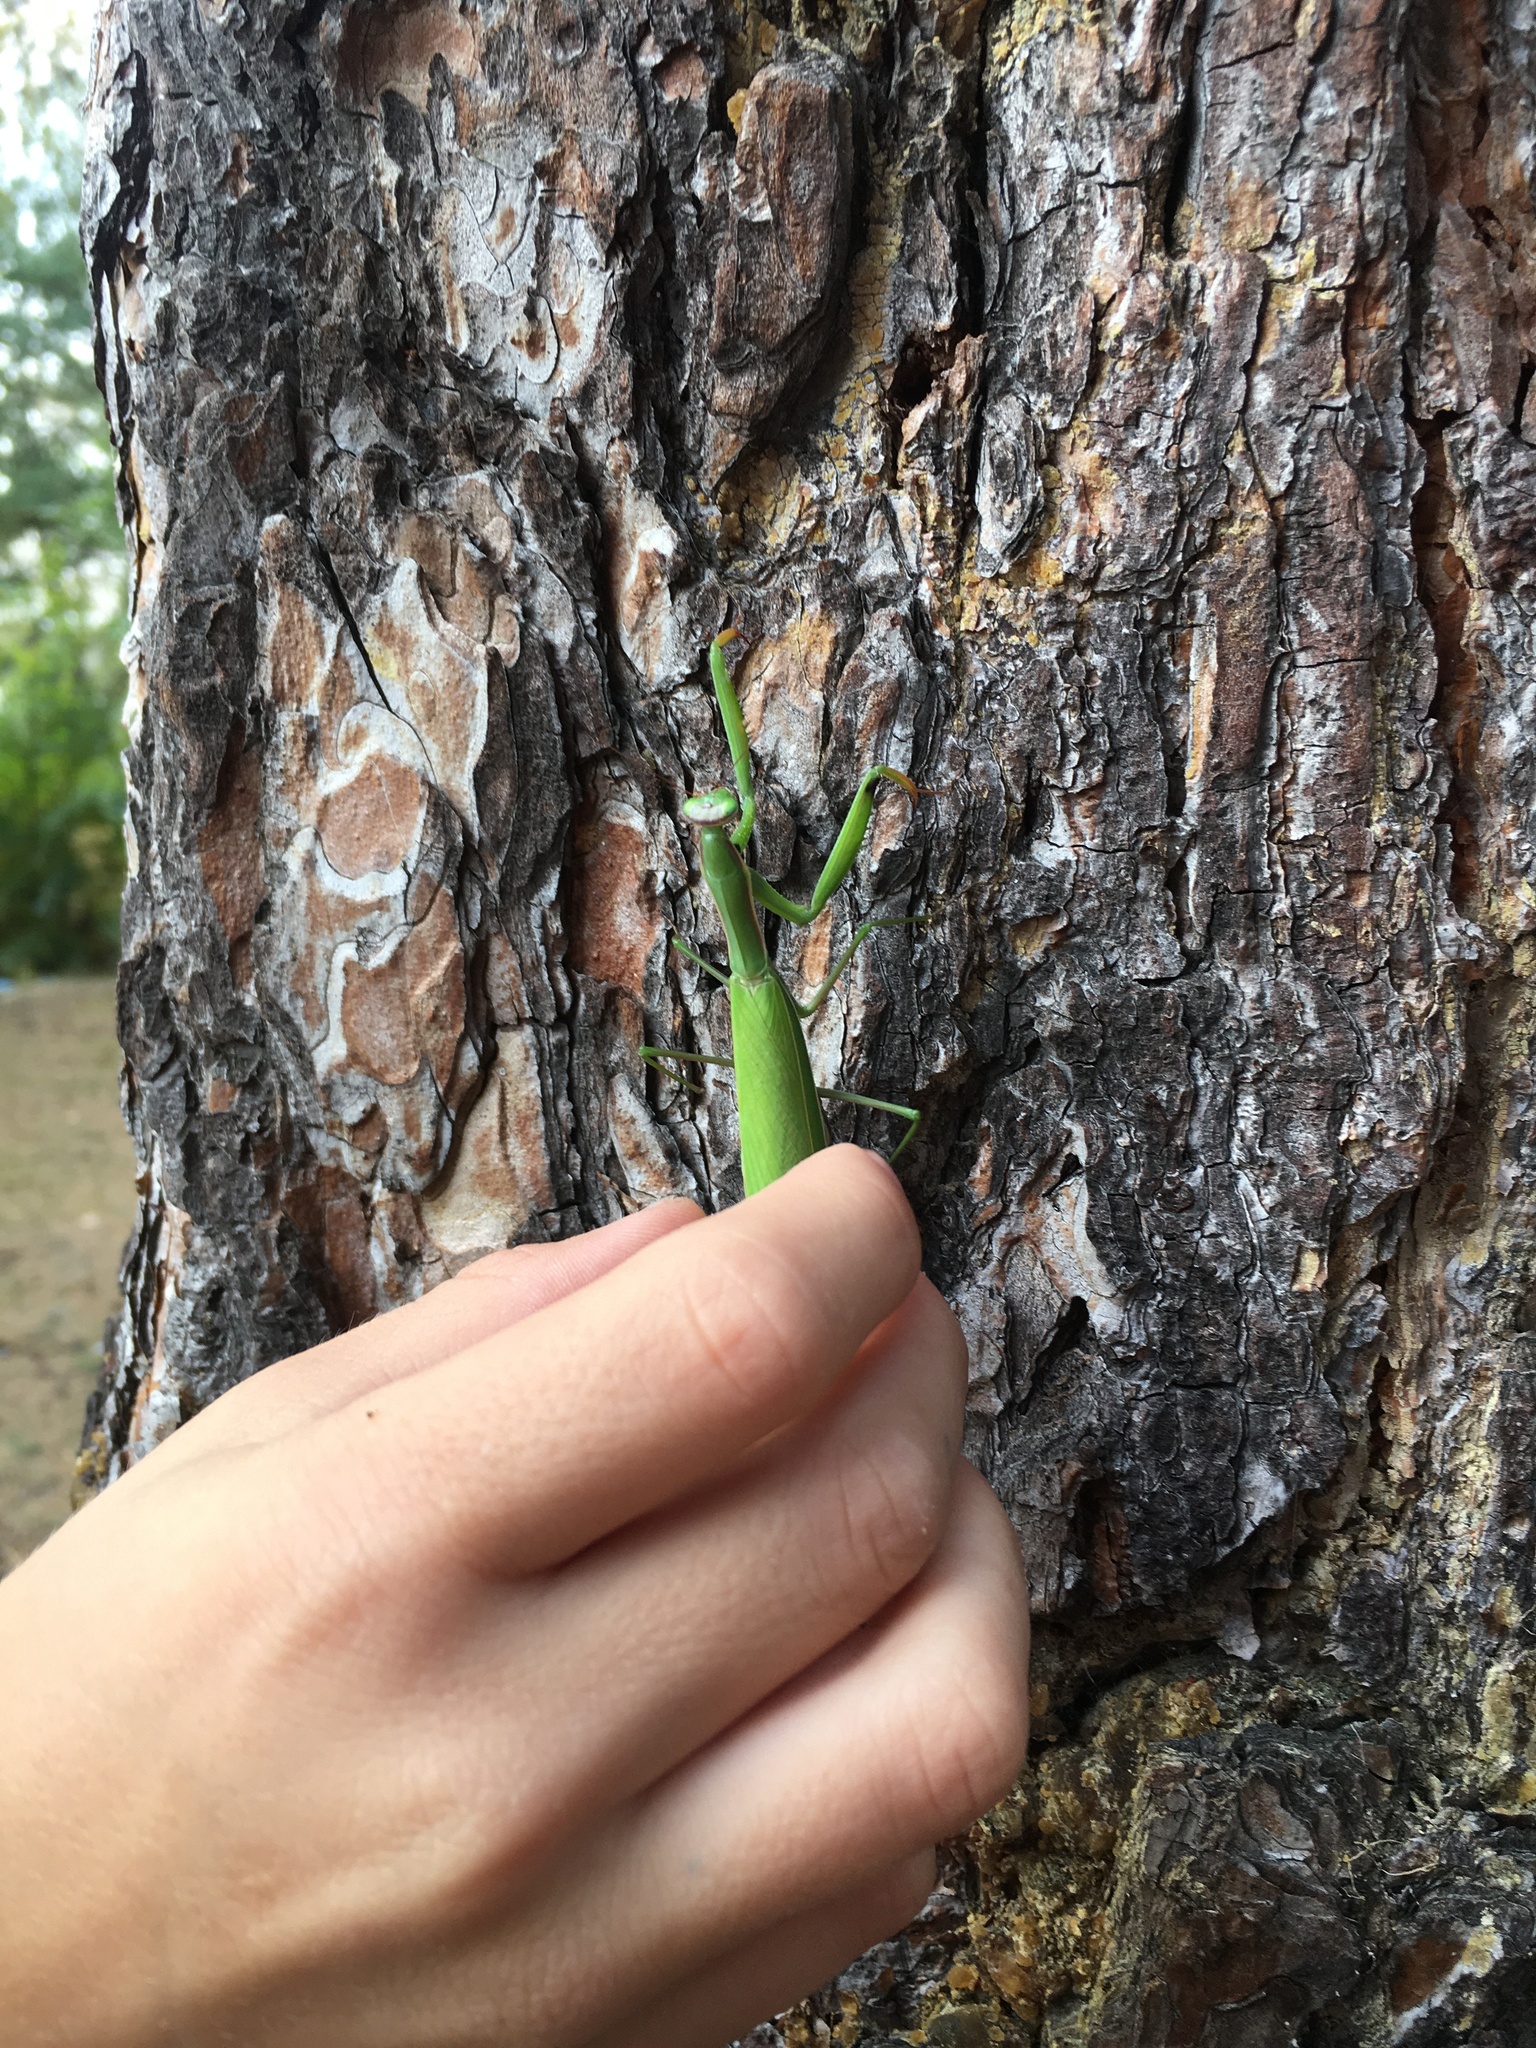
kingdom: Animalia
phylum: Arthropoda
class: Insecta
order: Mantodea
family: Mantidae
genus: Mantis
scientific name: Mantis religiosa
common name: Praying mantis
